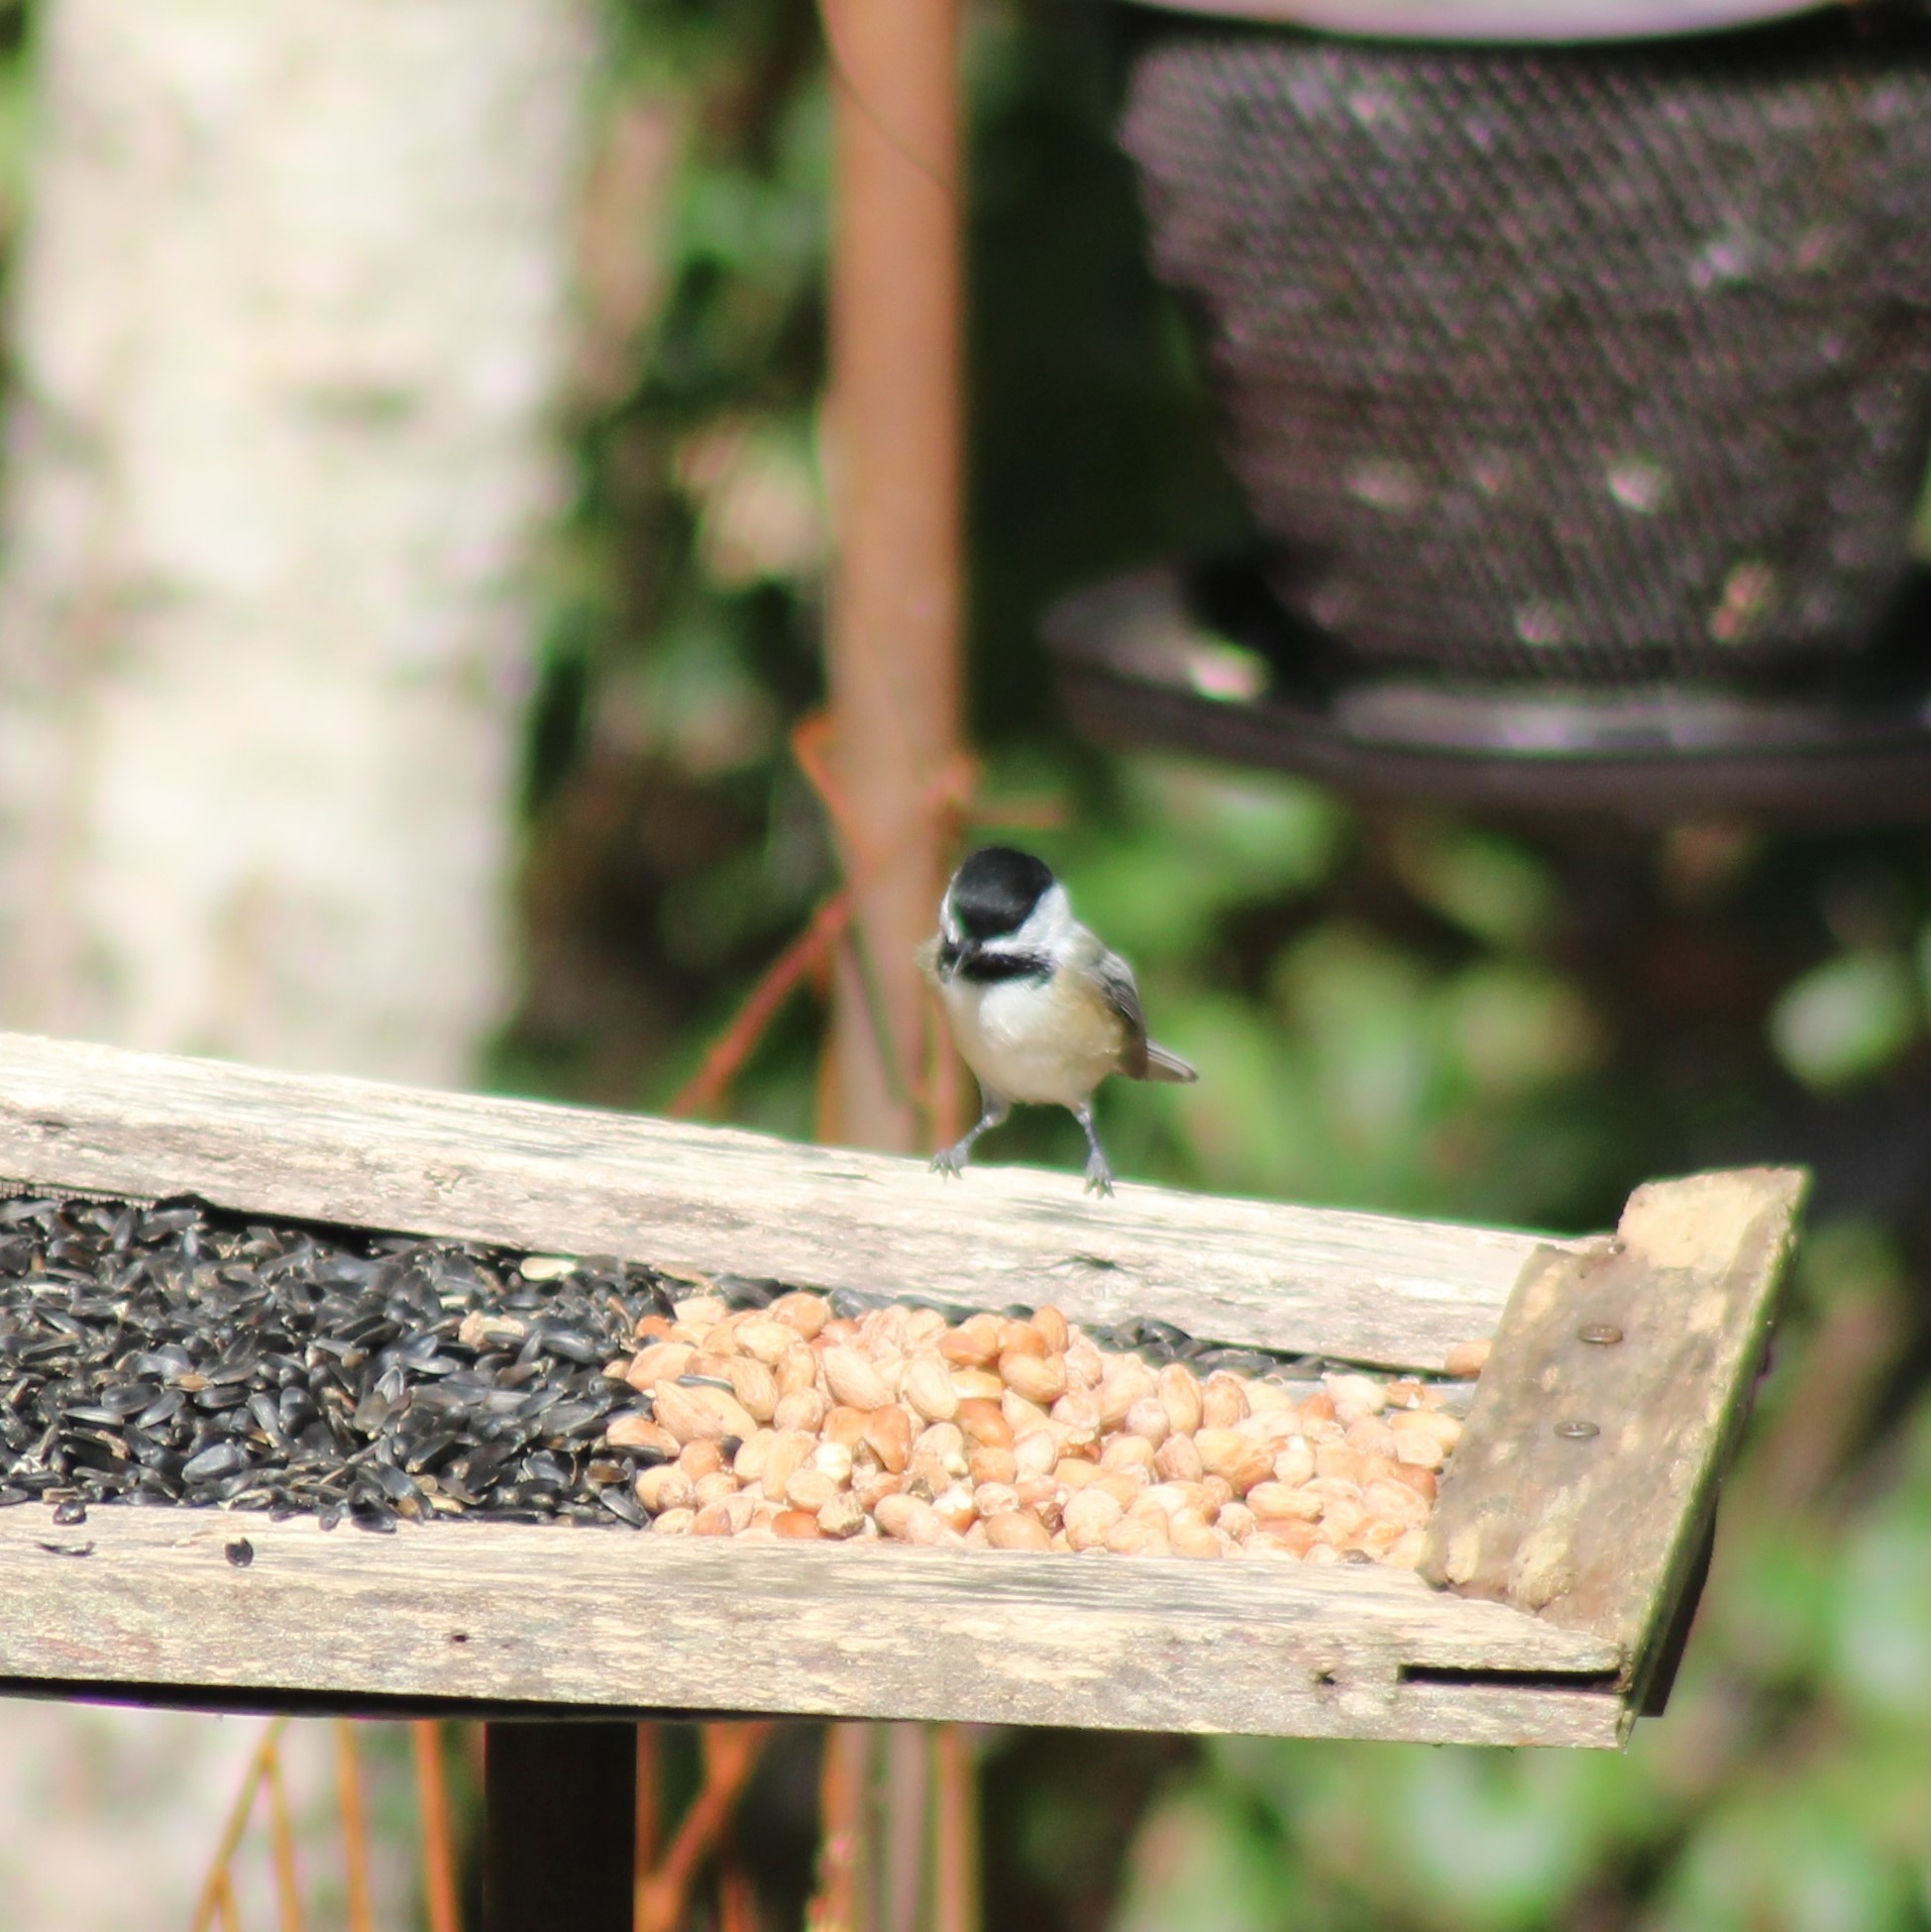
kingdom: Animalia
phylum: Chordata
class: Aves
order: Passeriformes
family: Paridae
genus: Poecile
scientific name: Poecile atricapillus
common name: Black-capped chickadee
